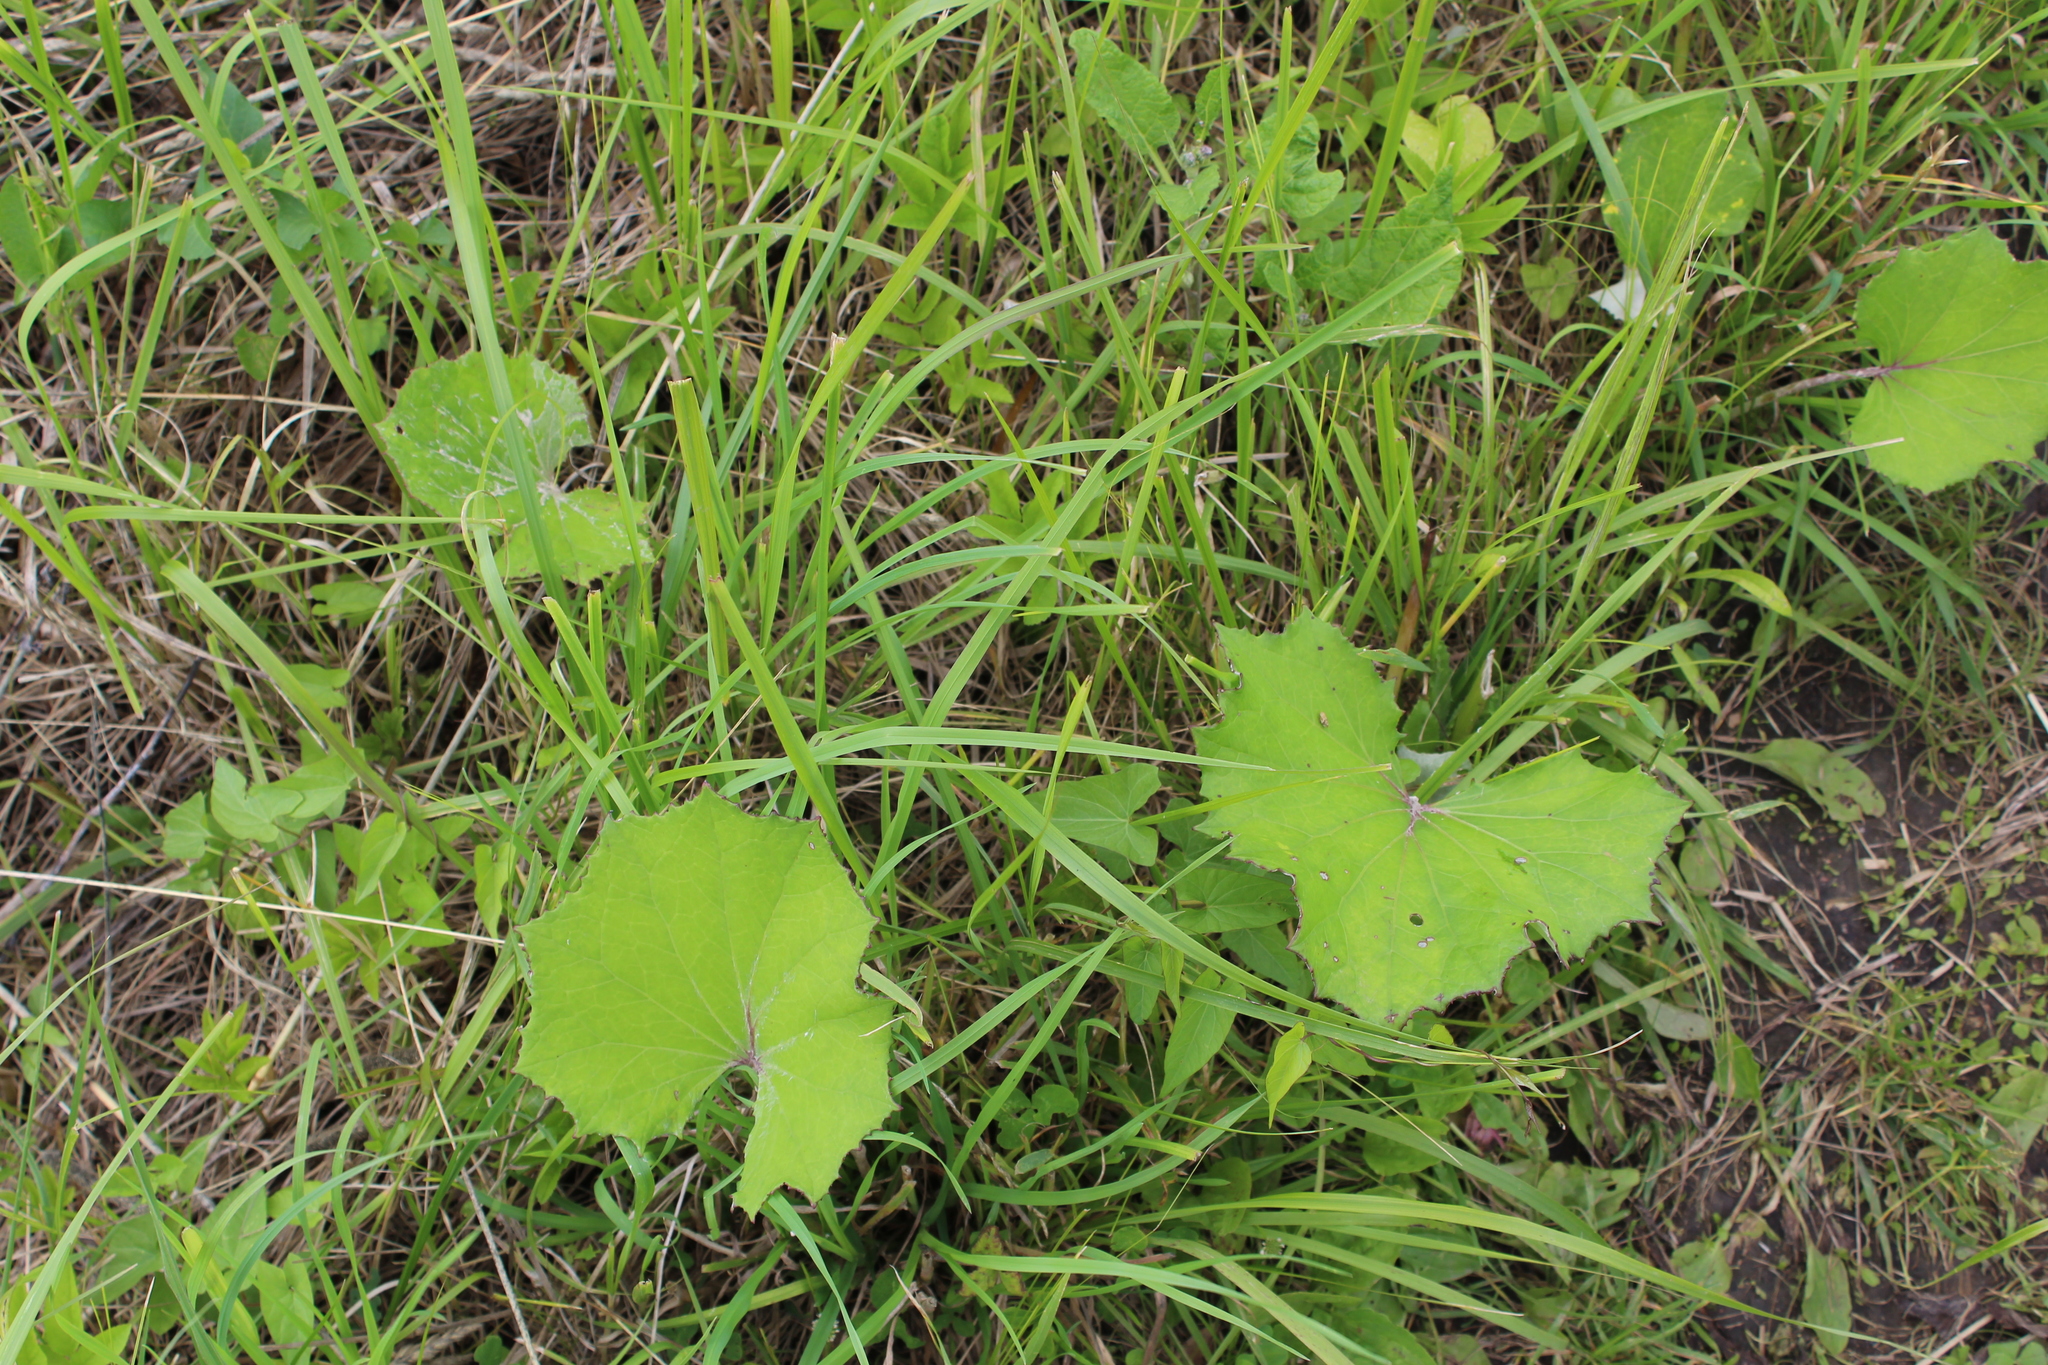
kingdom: Plantae
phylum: Tracheophyta
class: Magnoliopsida
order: Asterales
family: Asteraceae
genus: Tussilago
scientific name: Tussilago farfara
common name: Coltsfoot
